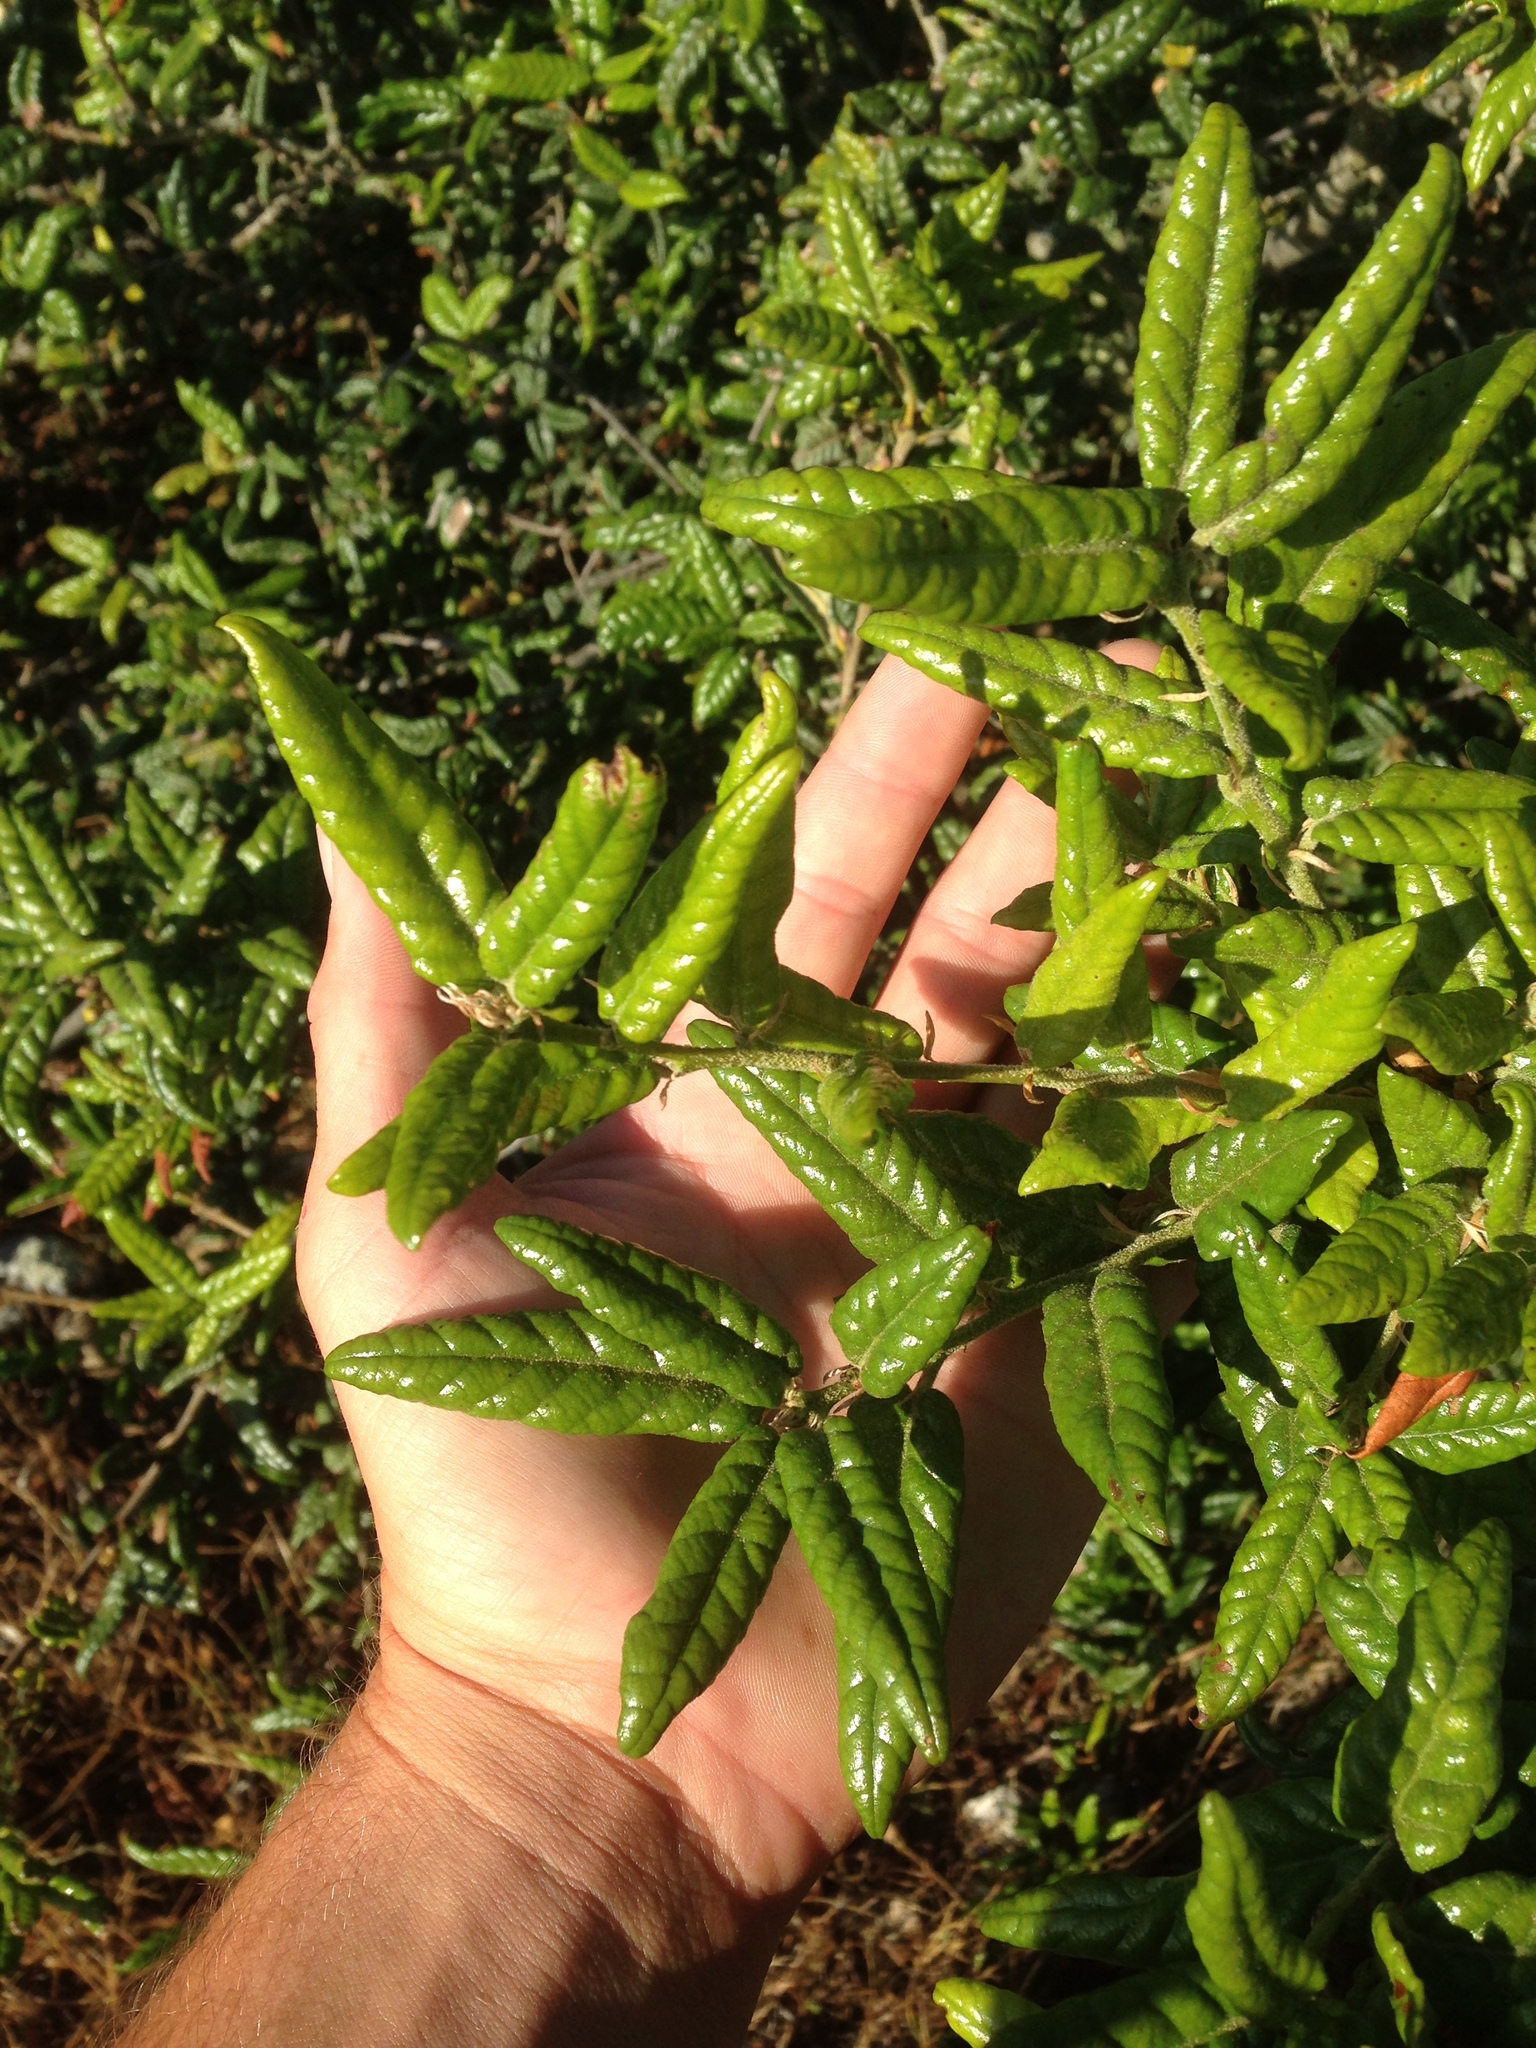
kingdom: Plantae
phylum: Tracheophyta
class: Magnoliopsida
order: Fagales
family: Fagaceae
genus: Quercus
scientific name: Quercus tomentella
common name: Island oak
